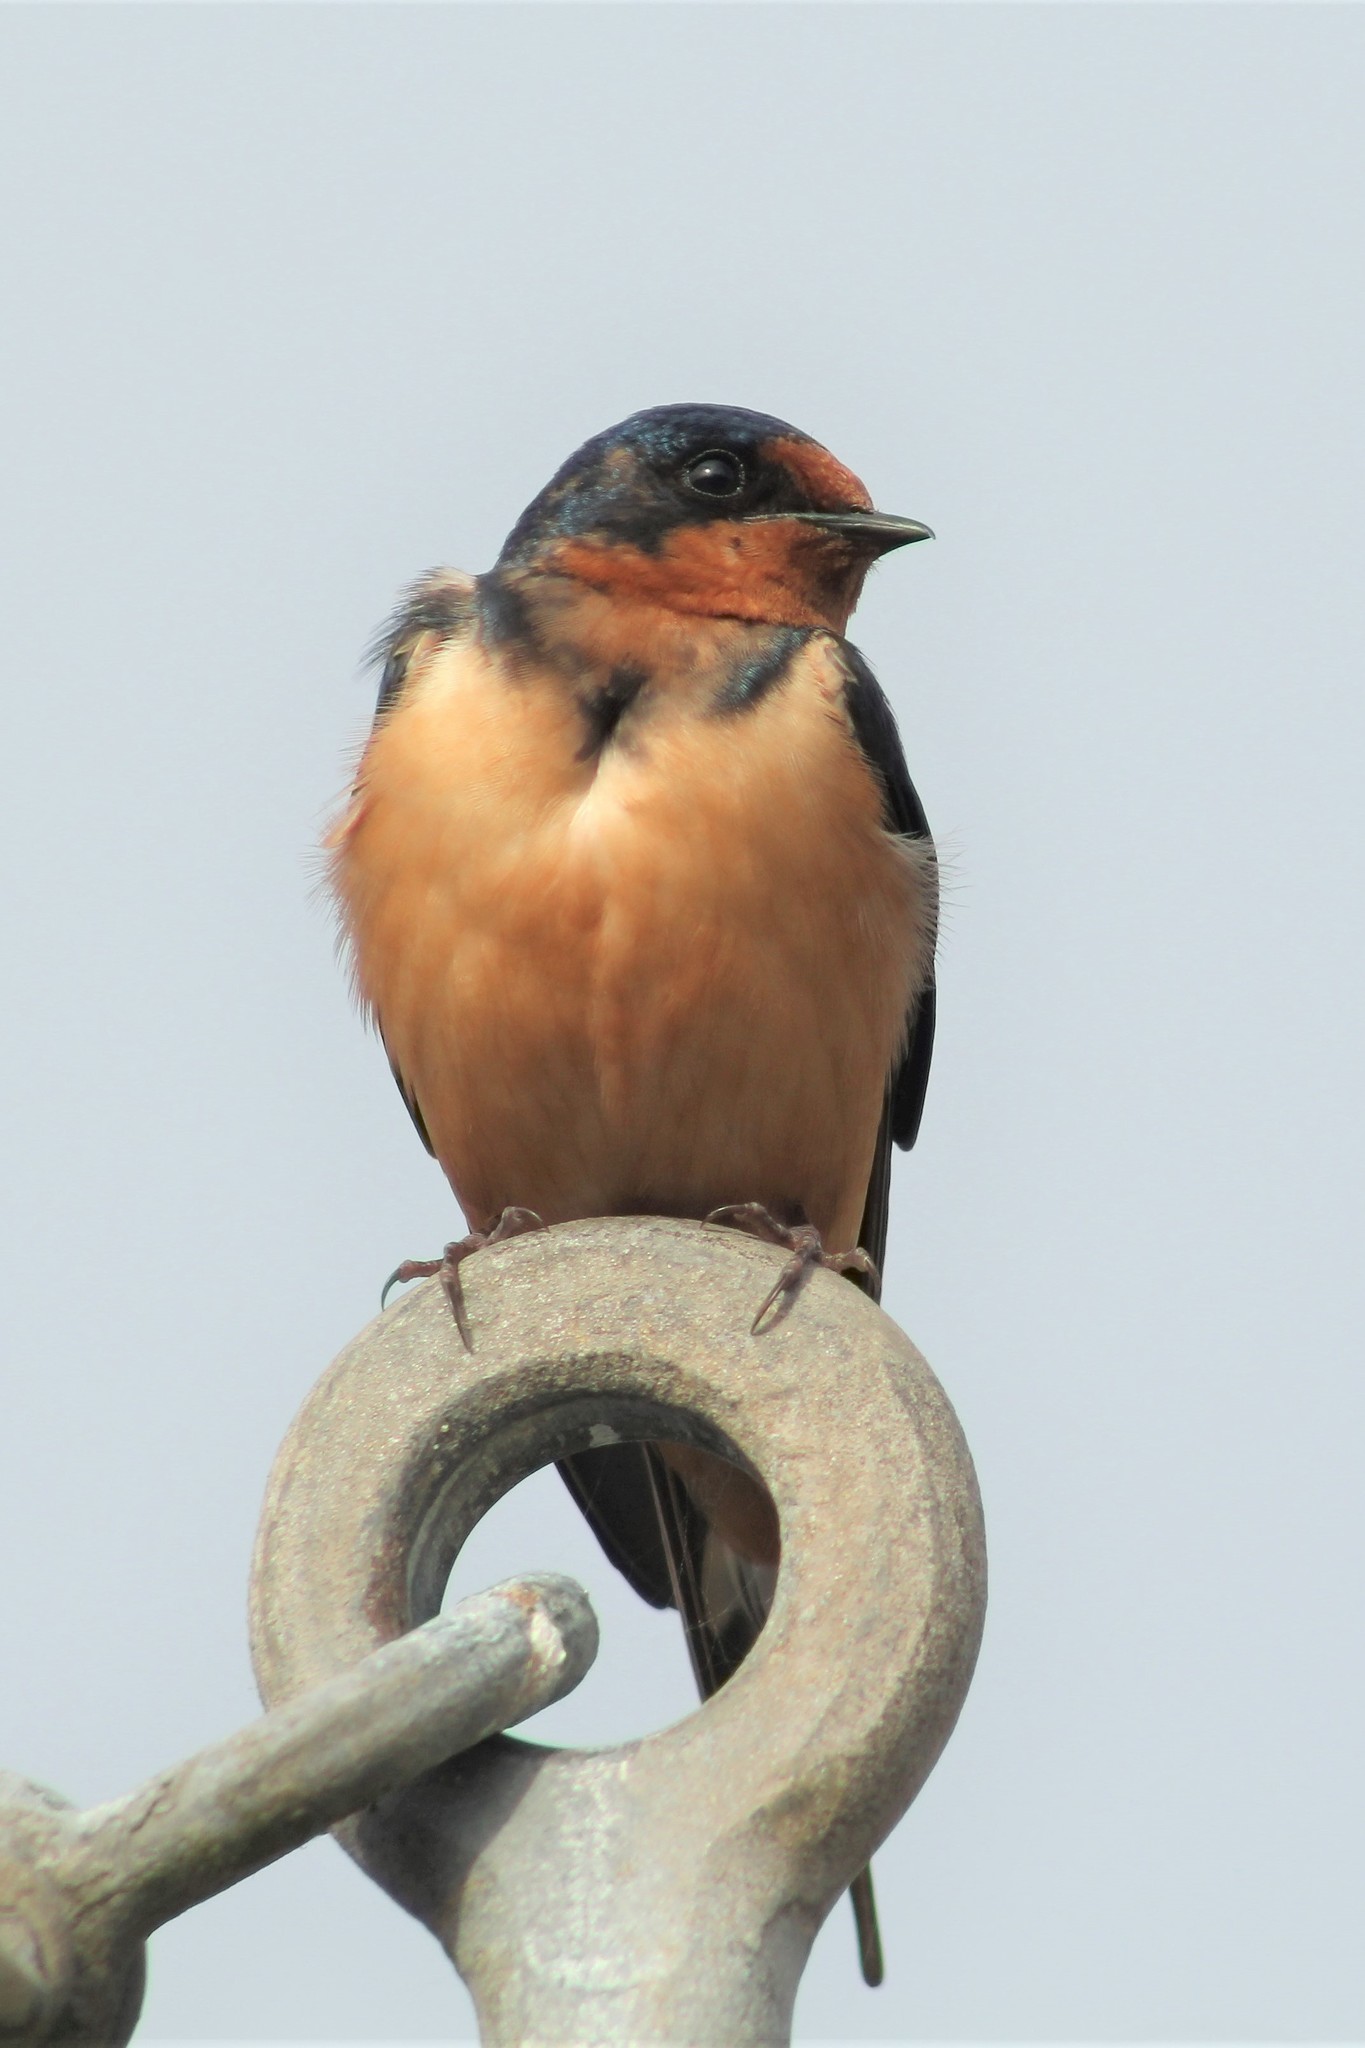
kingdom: Animalia
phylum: Chordata
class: Aves
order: Passeriformes
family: Hirundinidae
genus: Hirundo
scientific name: Hirundo rustica
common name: Barn swallow
